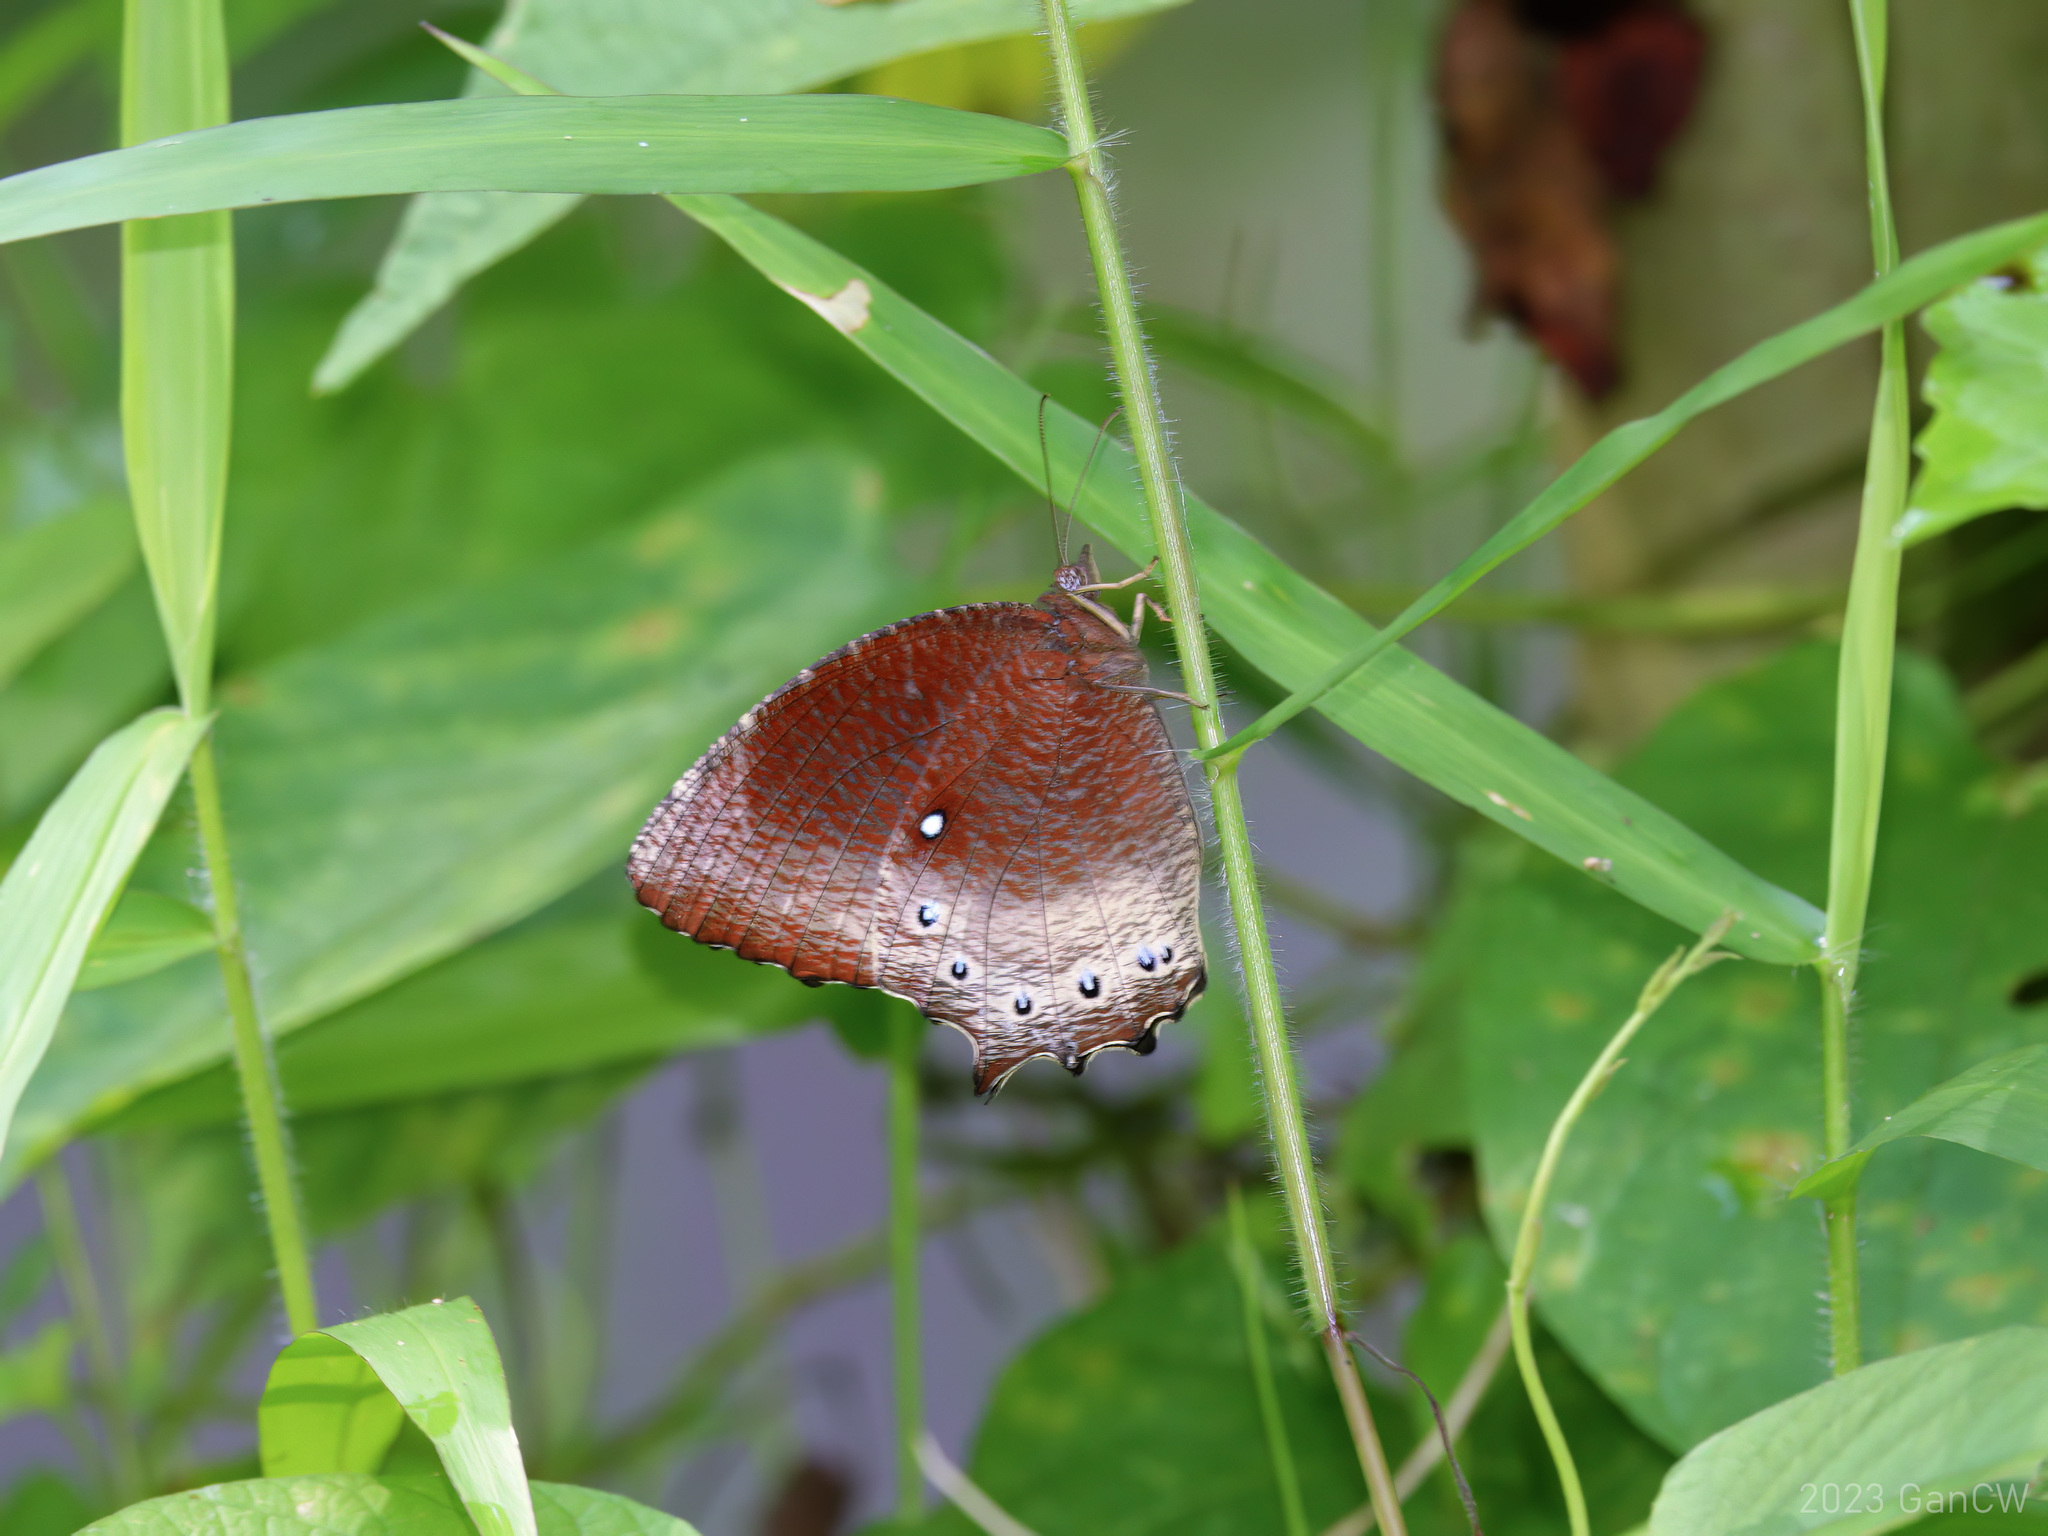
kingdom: Animalia
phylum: Arthropoda
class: Insecta
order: Lepidoptera
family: Nymphalidae
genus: Elymnias
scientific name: Elymnias panthera
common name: Tawny palmfly
